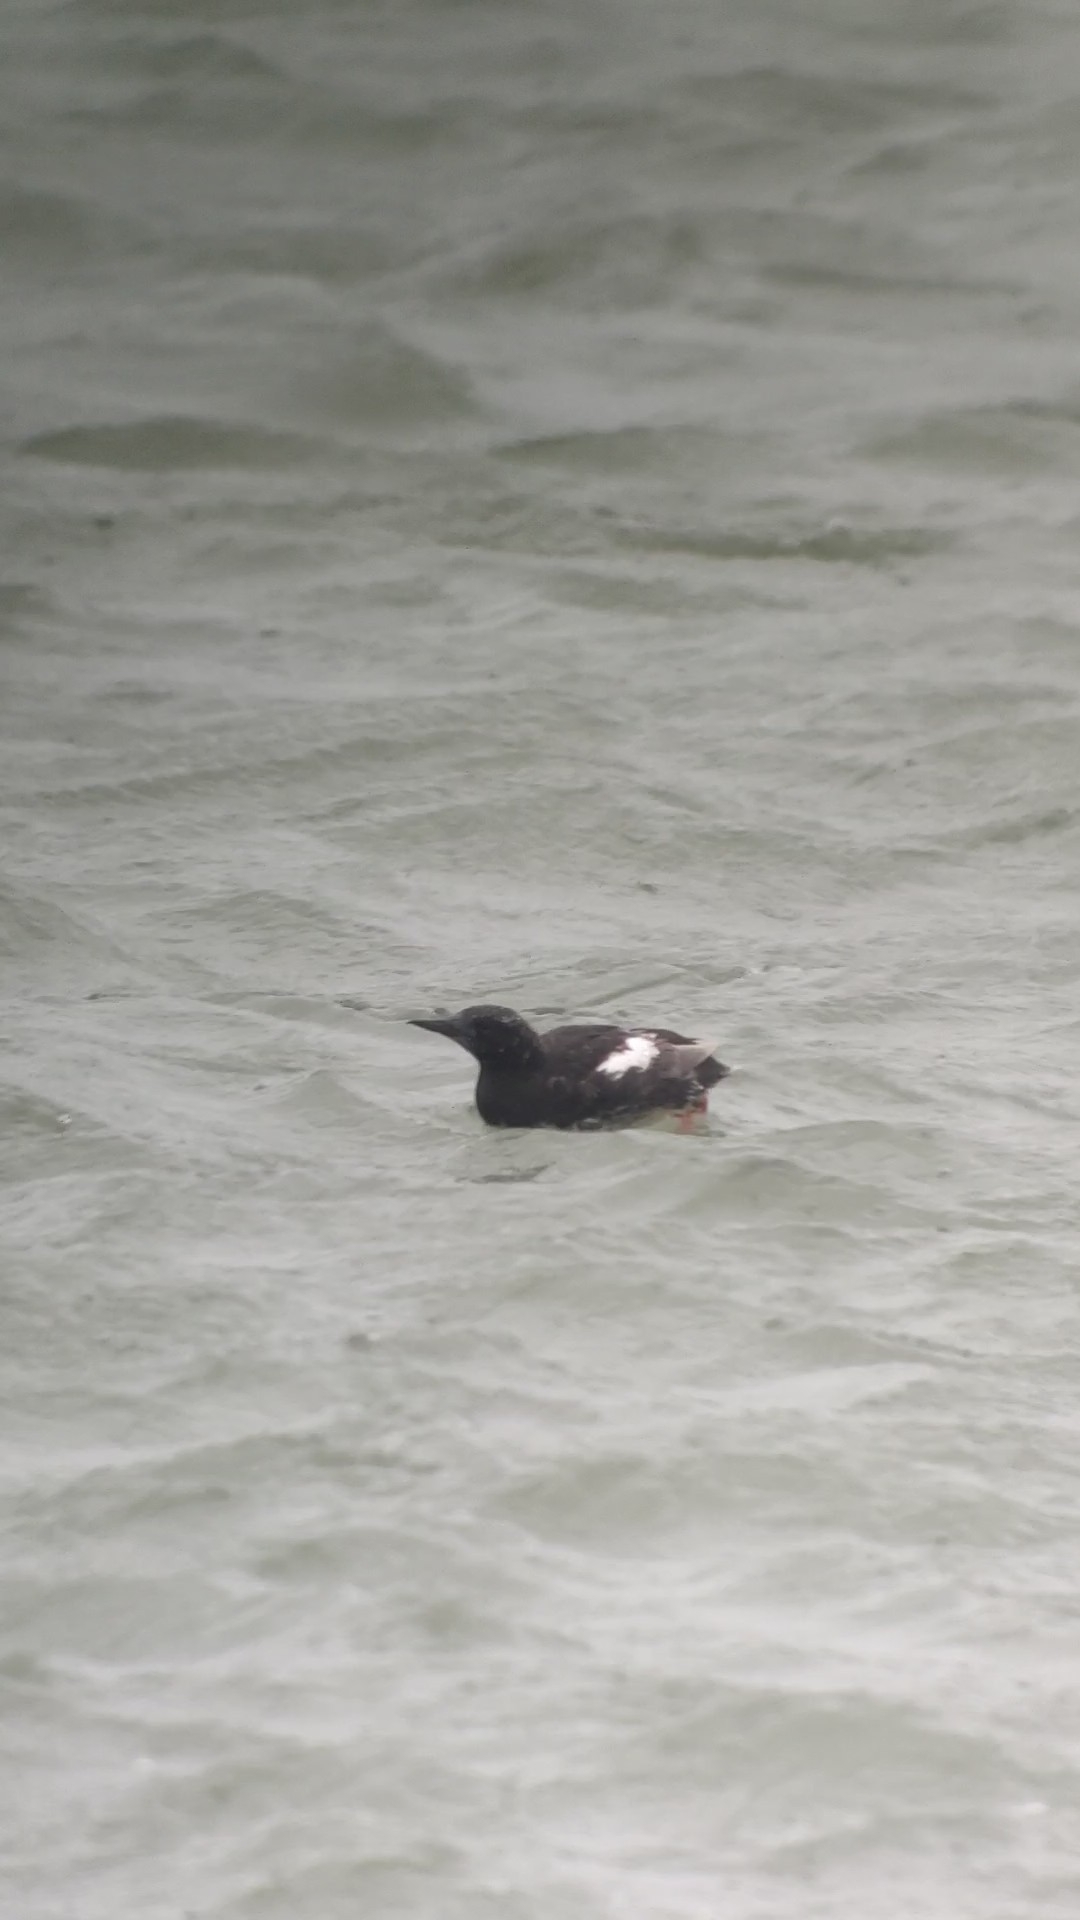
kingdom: Animalia
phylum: Chordata
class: Aves
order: Charadriiformes
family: Alcidae
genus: Cepphus
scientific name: Cepphus grylle
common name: Black guillemot
